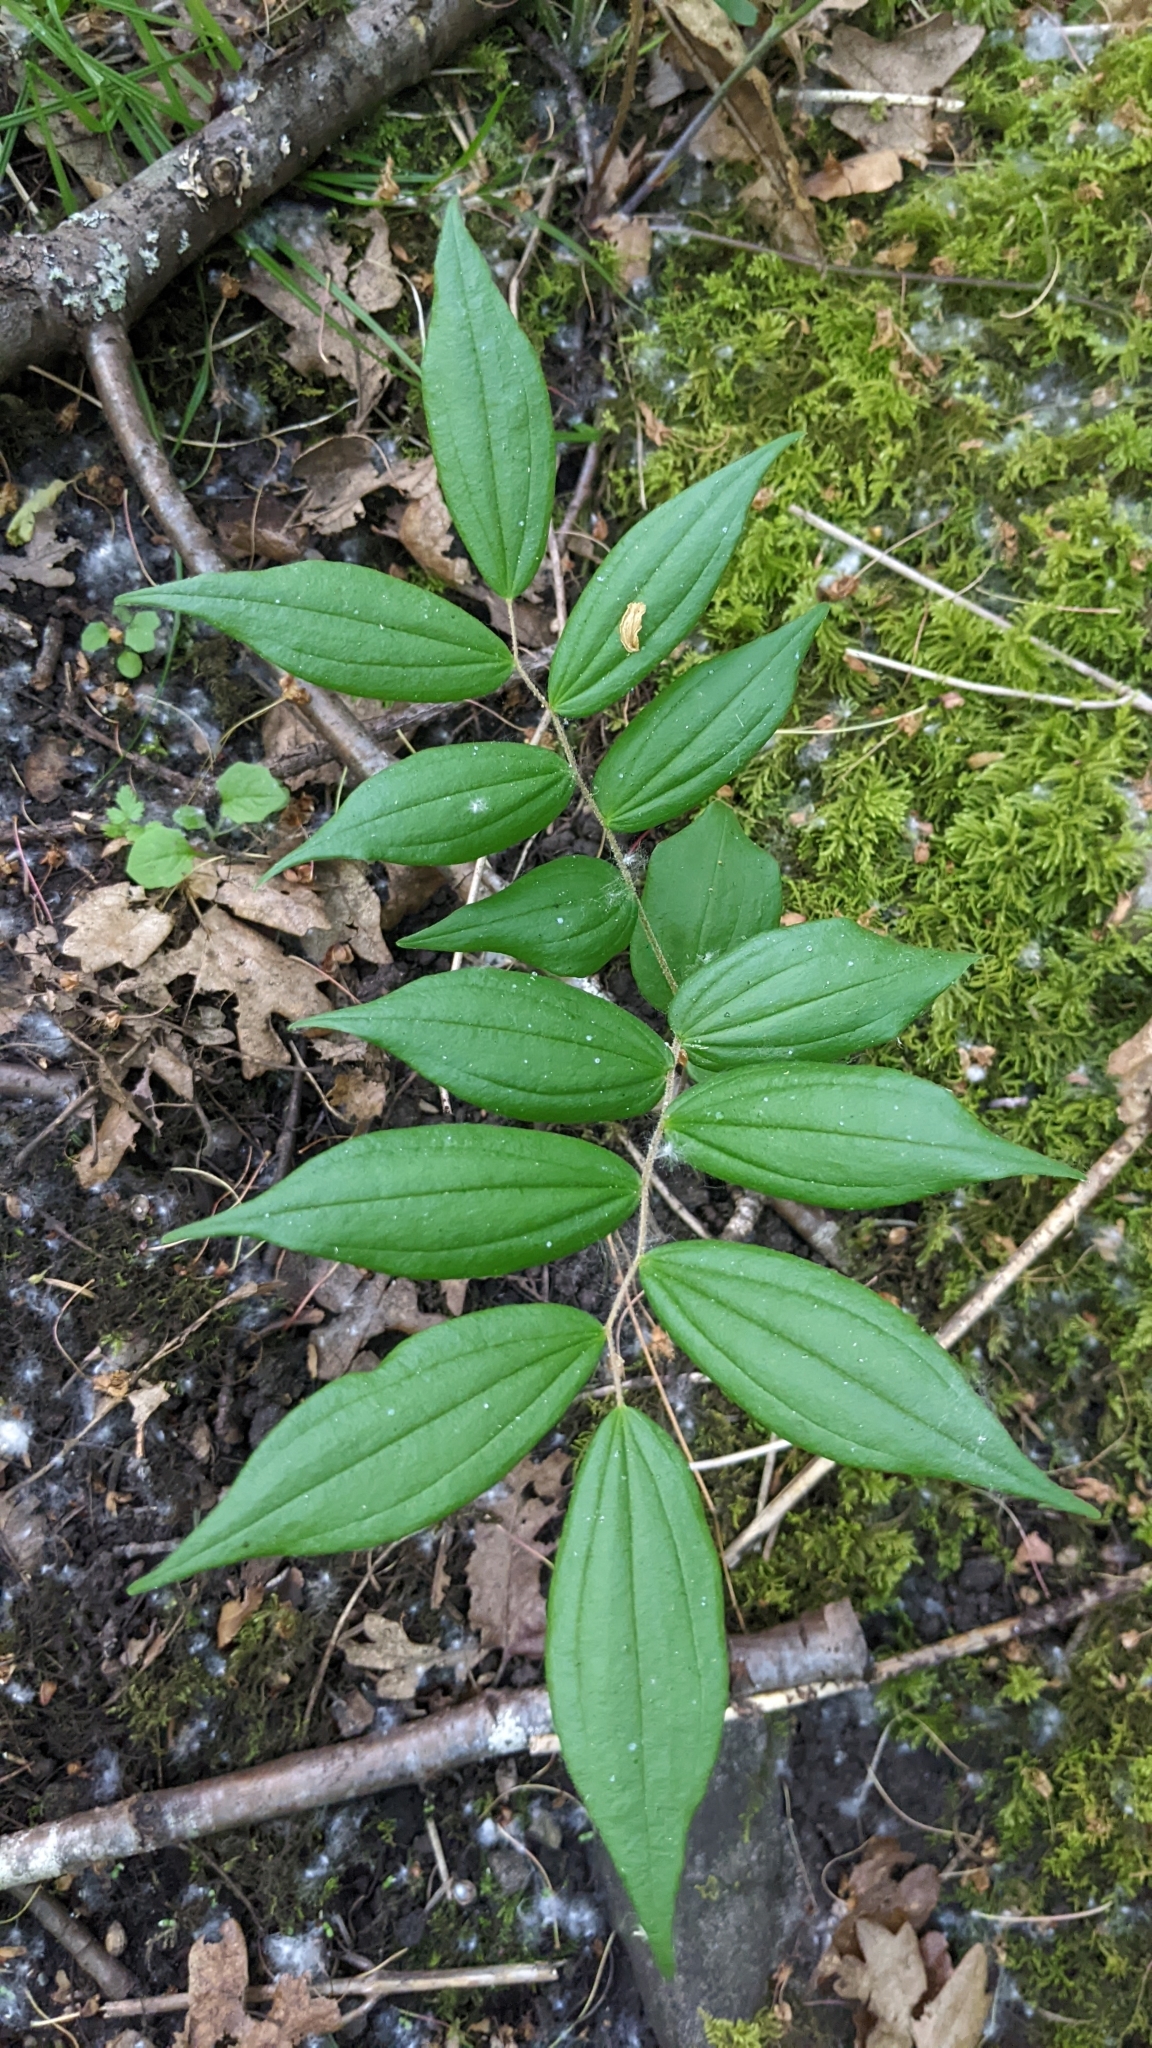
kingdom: Plantae
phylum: Tracheophyta
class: Liliopsida
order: Liliales
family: Liliaceae
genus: Prosartes
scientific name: Prosartes hookeri
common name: Fairy-bells
